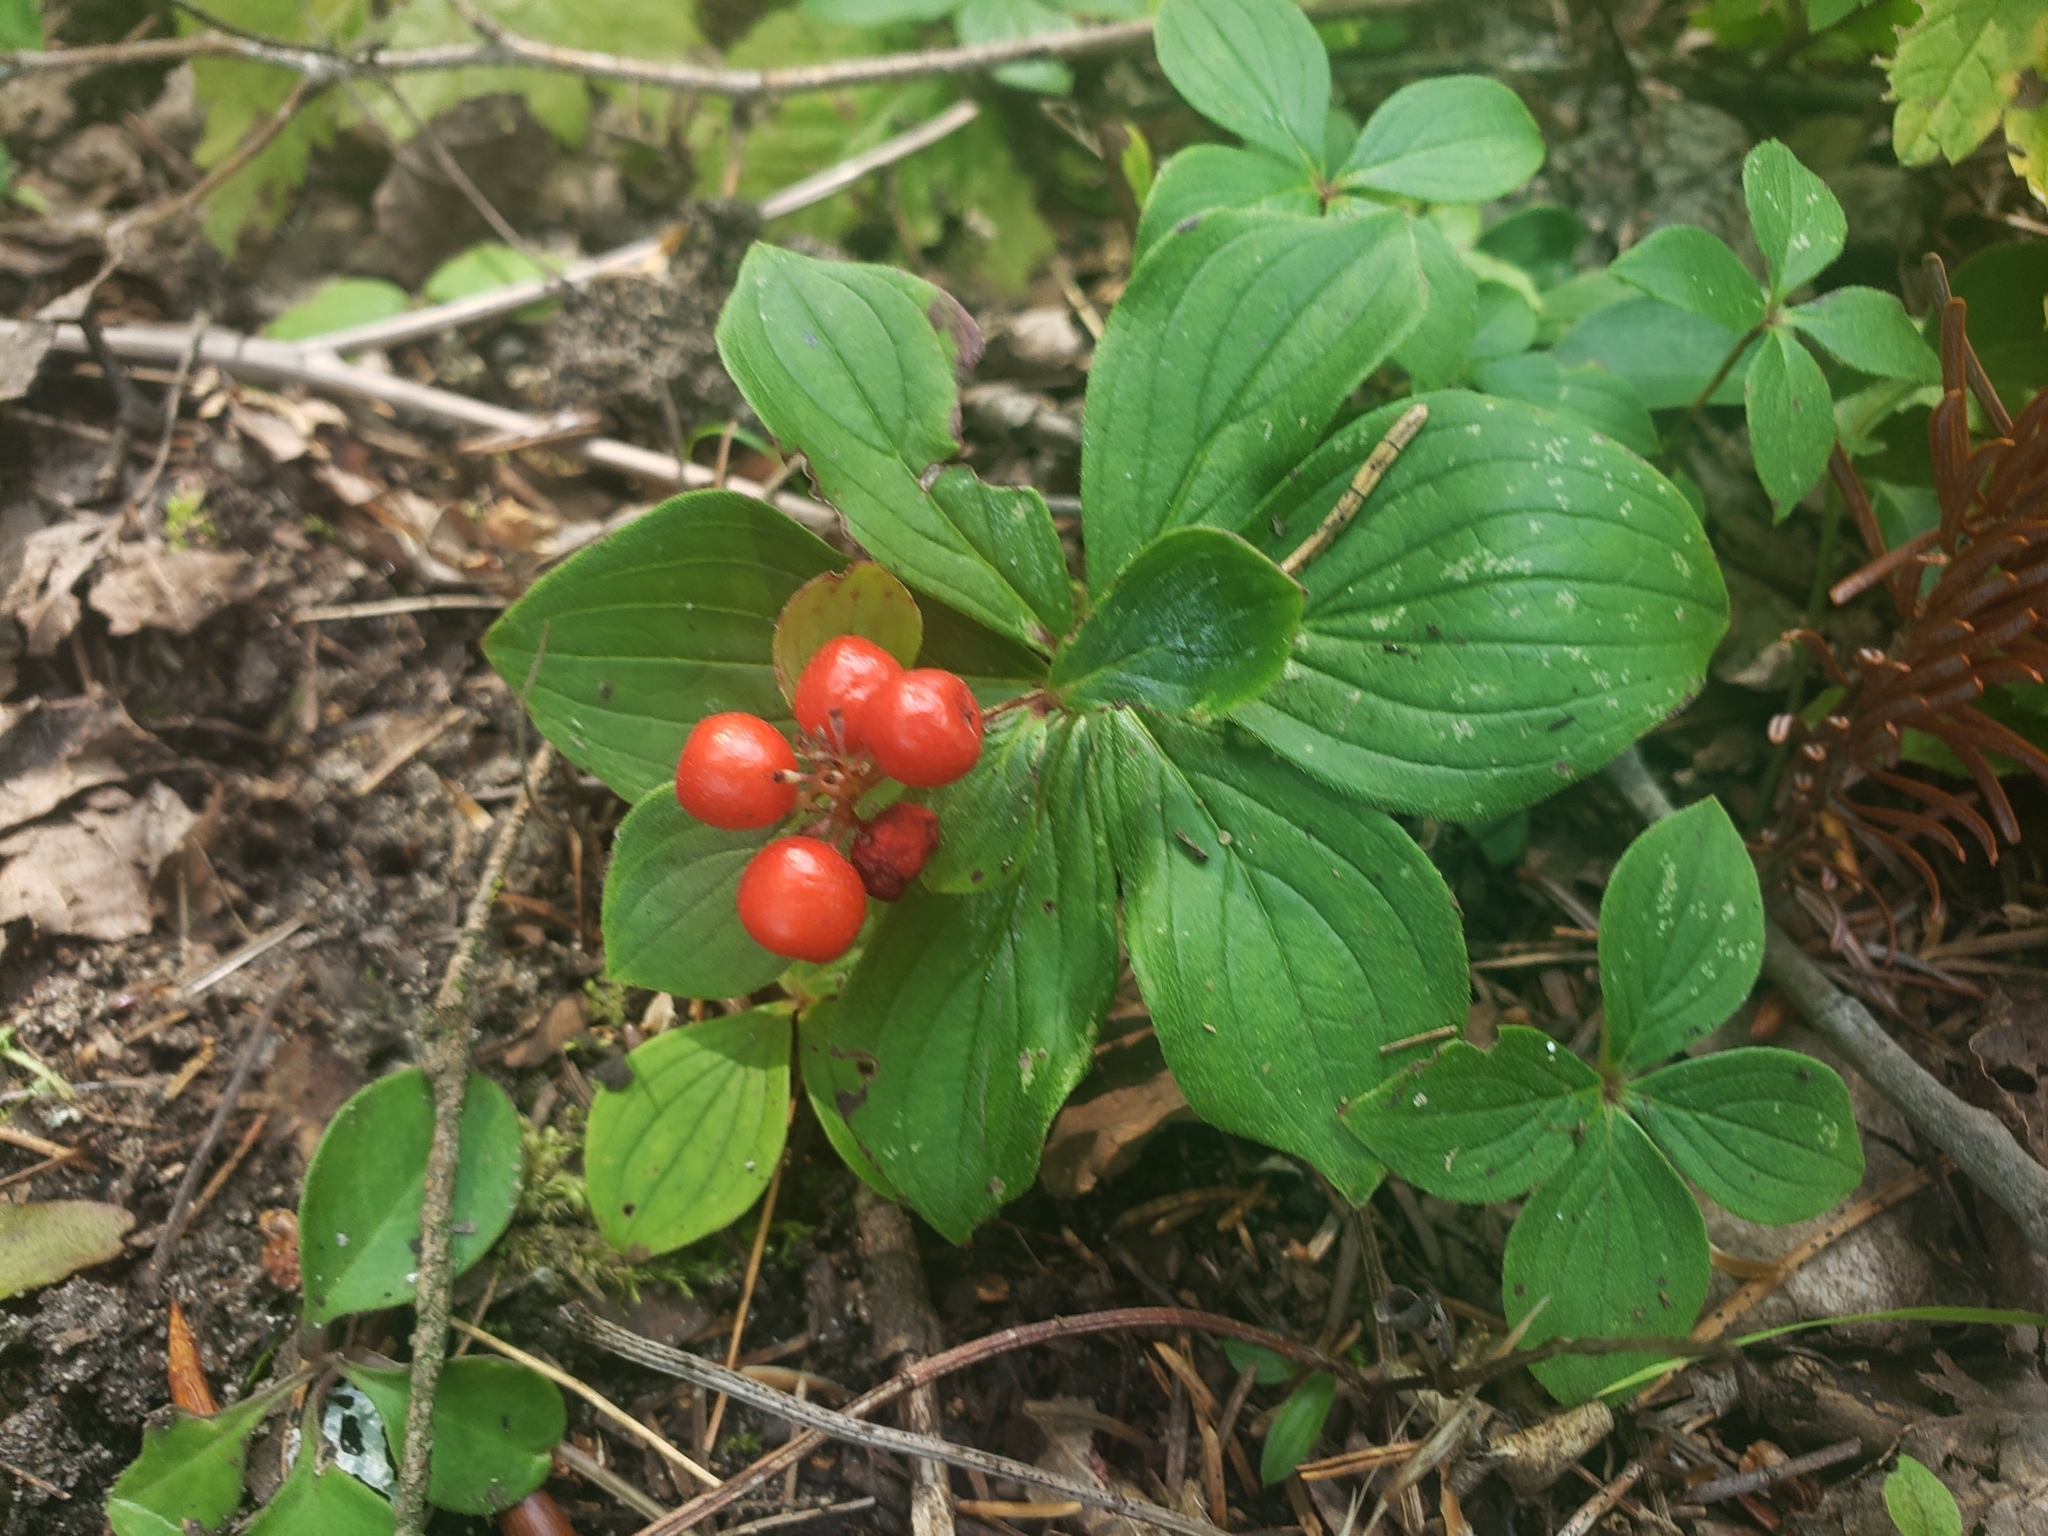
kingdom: Plantae
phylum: Tracheophyta
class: Magnoliopsida
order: Cornales
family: Cornaceae
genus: Cornus
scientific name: Cornus canadensis
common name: Creeping dogwood
